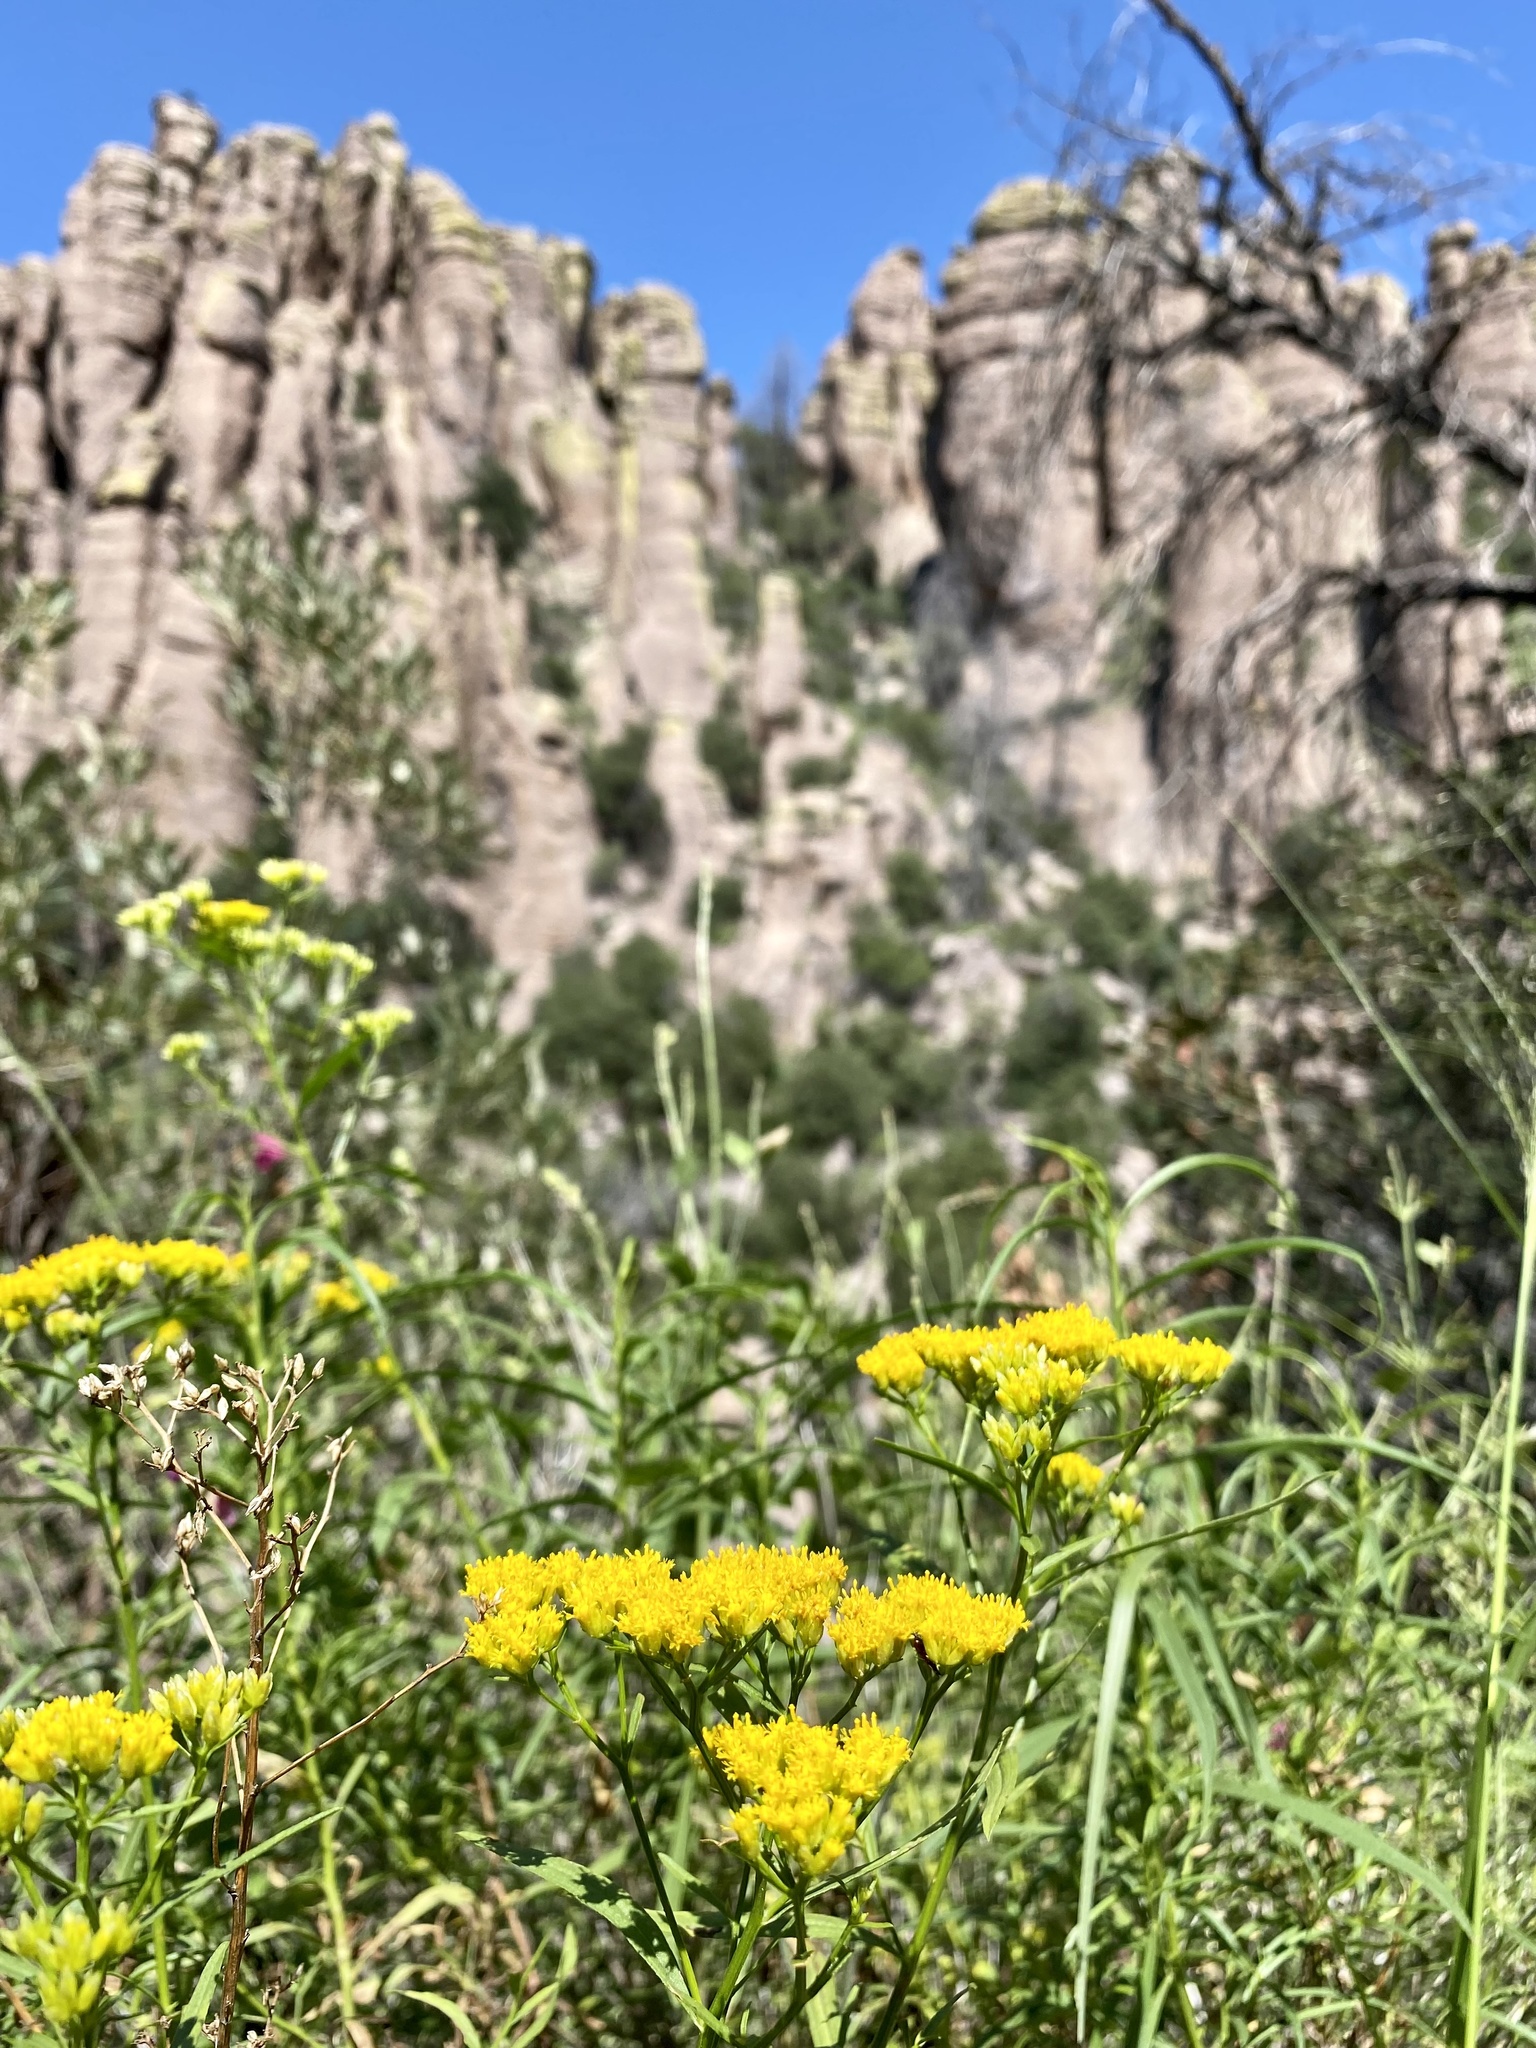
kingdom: Plantae
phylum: Tracheophyta
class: Magnoliopsida
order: Asterales
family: Asteraceae
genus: Gymnosperma
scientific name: Gymnosperma glutinosum
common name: Gumhead
